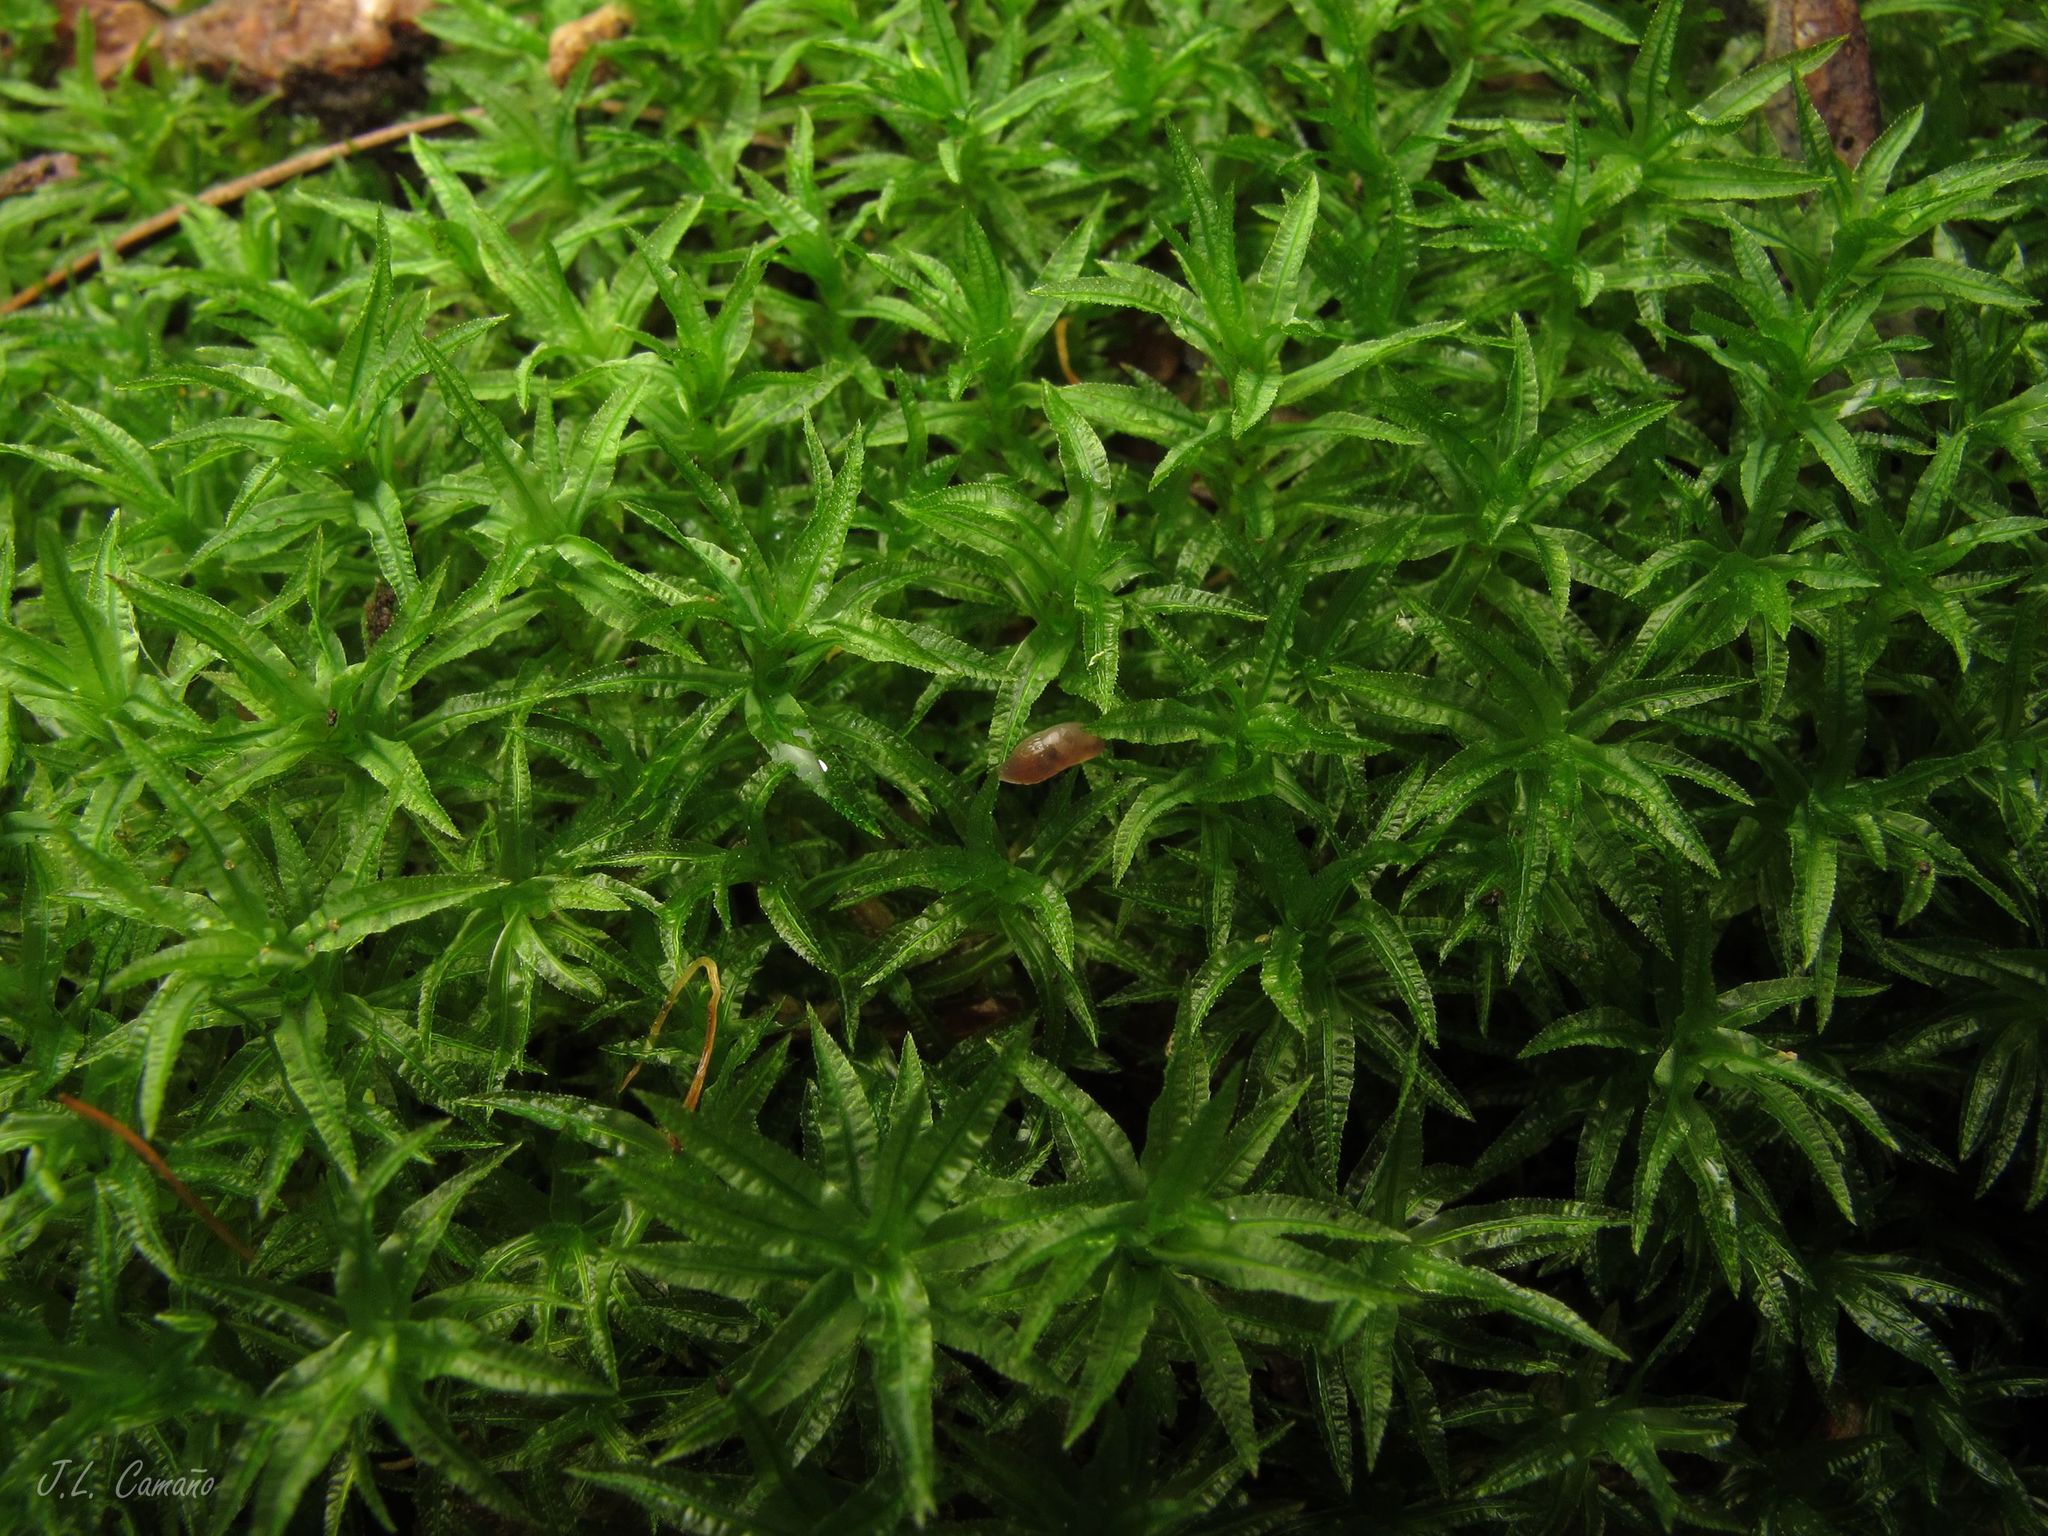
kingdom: Plantae
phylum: Bryophyta
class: Polytrichopsida
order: Polytrichales
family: Polytrichaceae
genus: Atrichum
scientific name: Atrichum undulatum
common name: Common smoothcap
